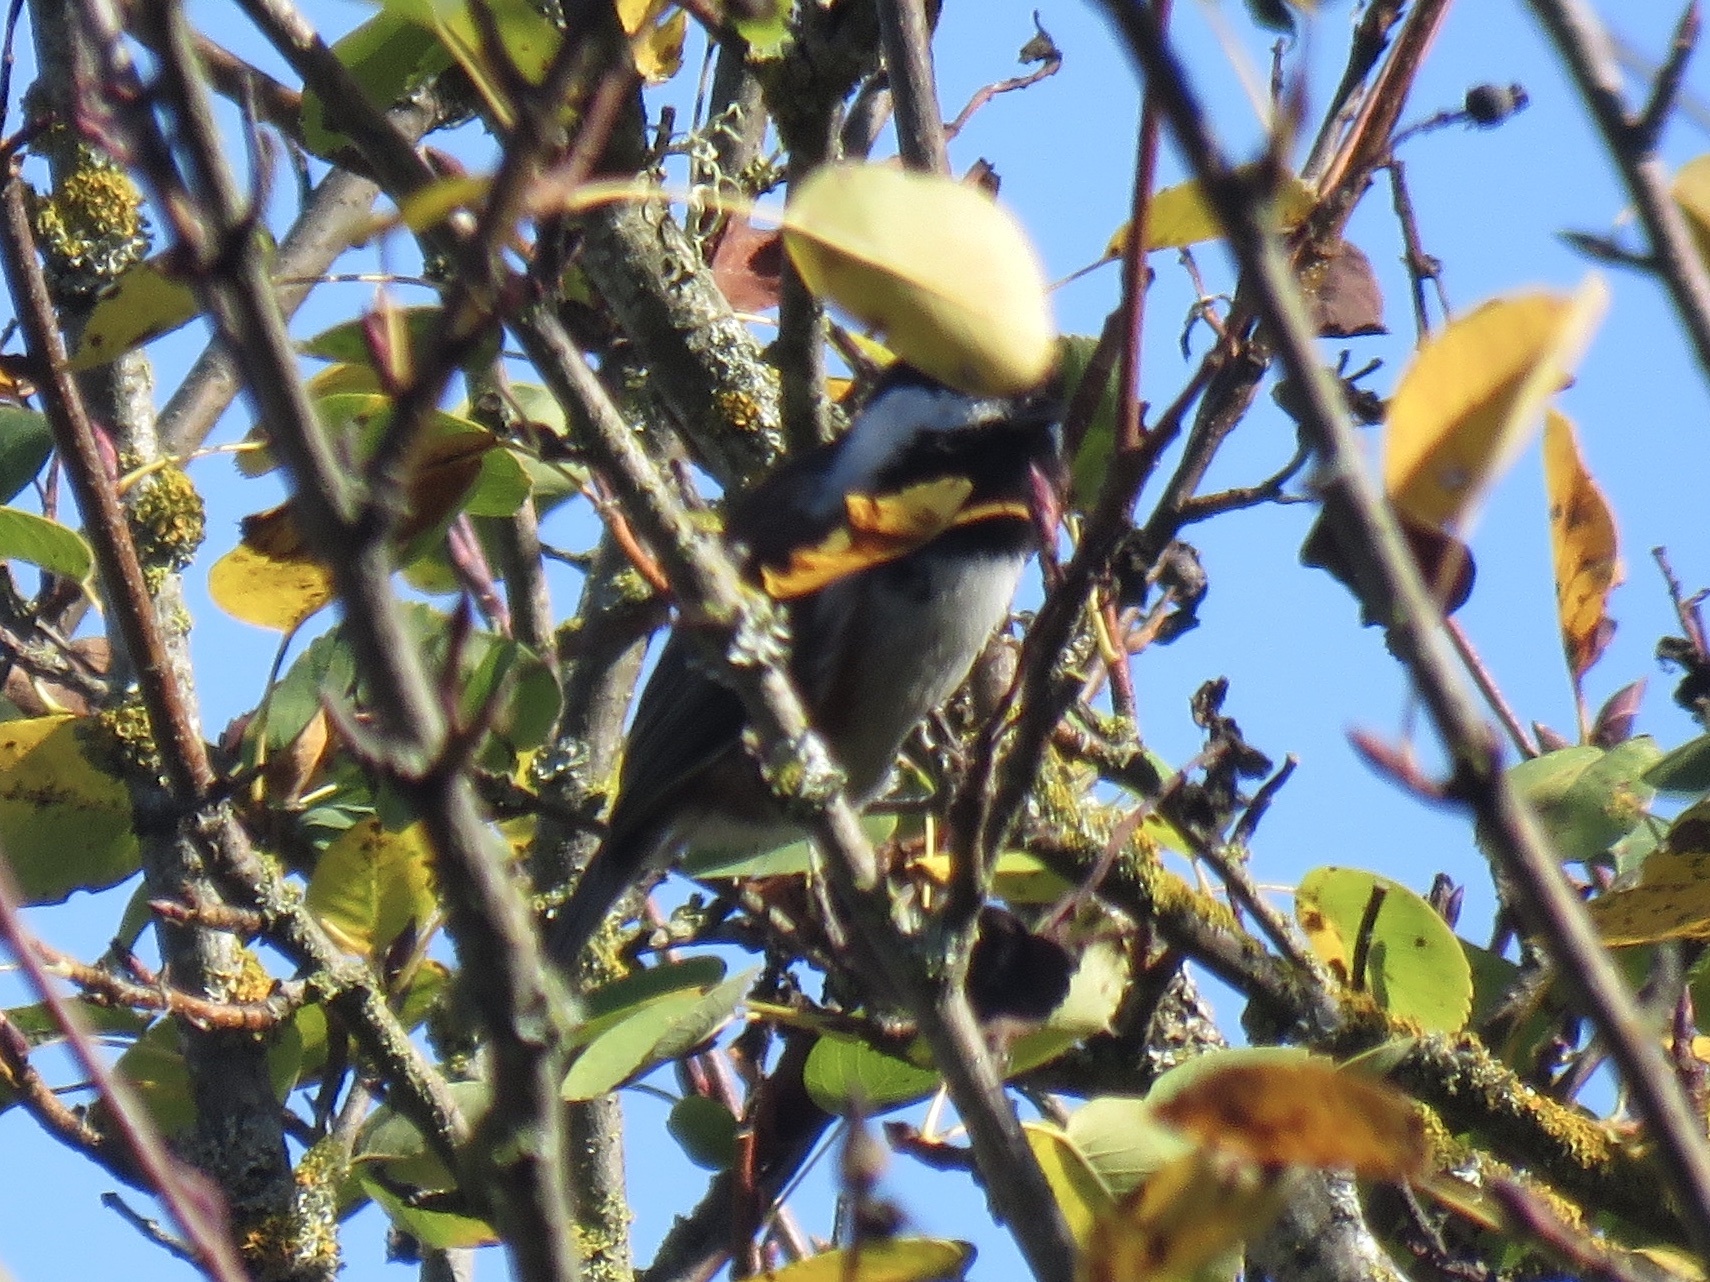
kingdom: Animalia
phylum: Chordata
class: Aves
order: Passeriformes
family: Paridae
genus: Poecile
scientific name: Poecile rufescens
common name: Chestnut-backed chickadee
